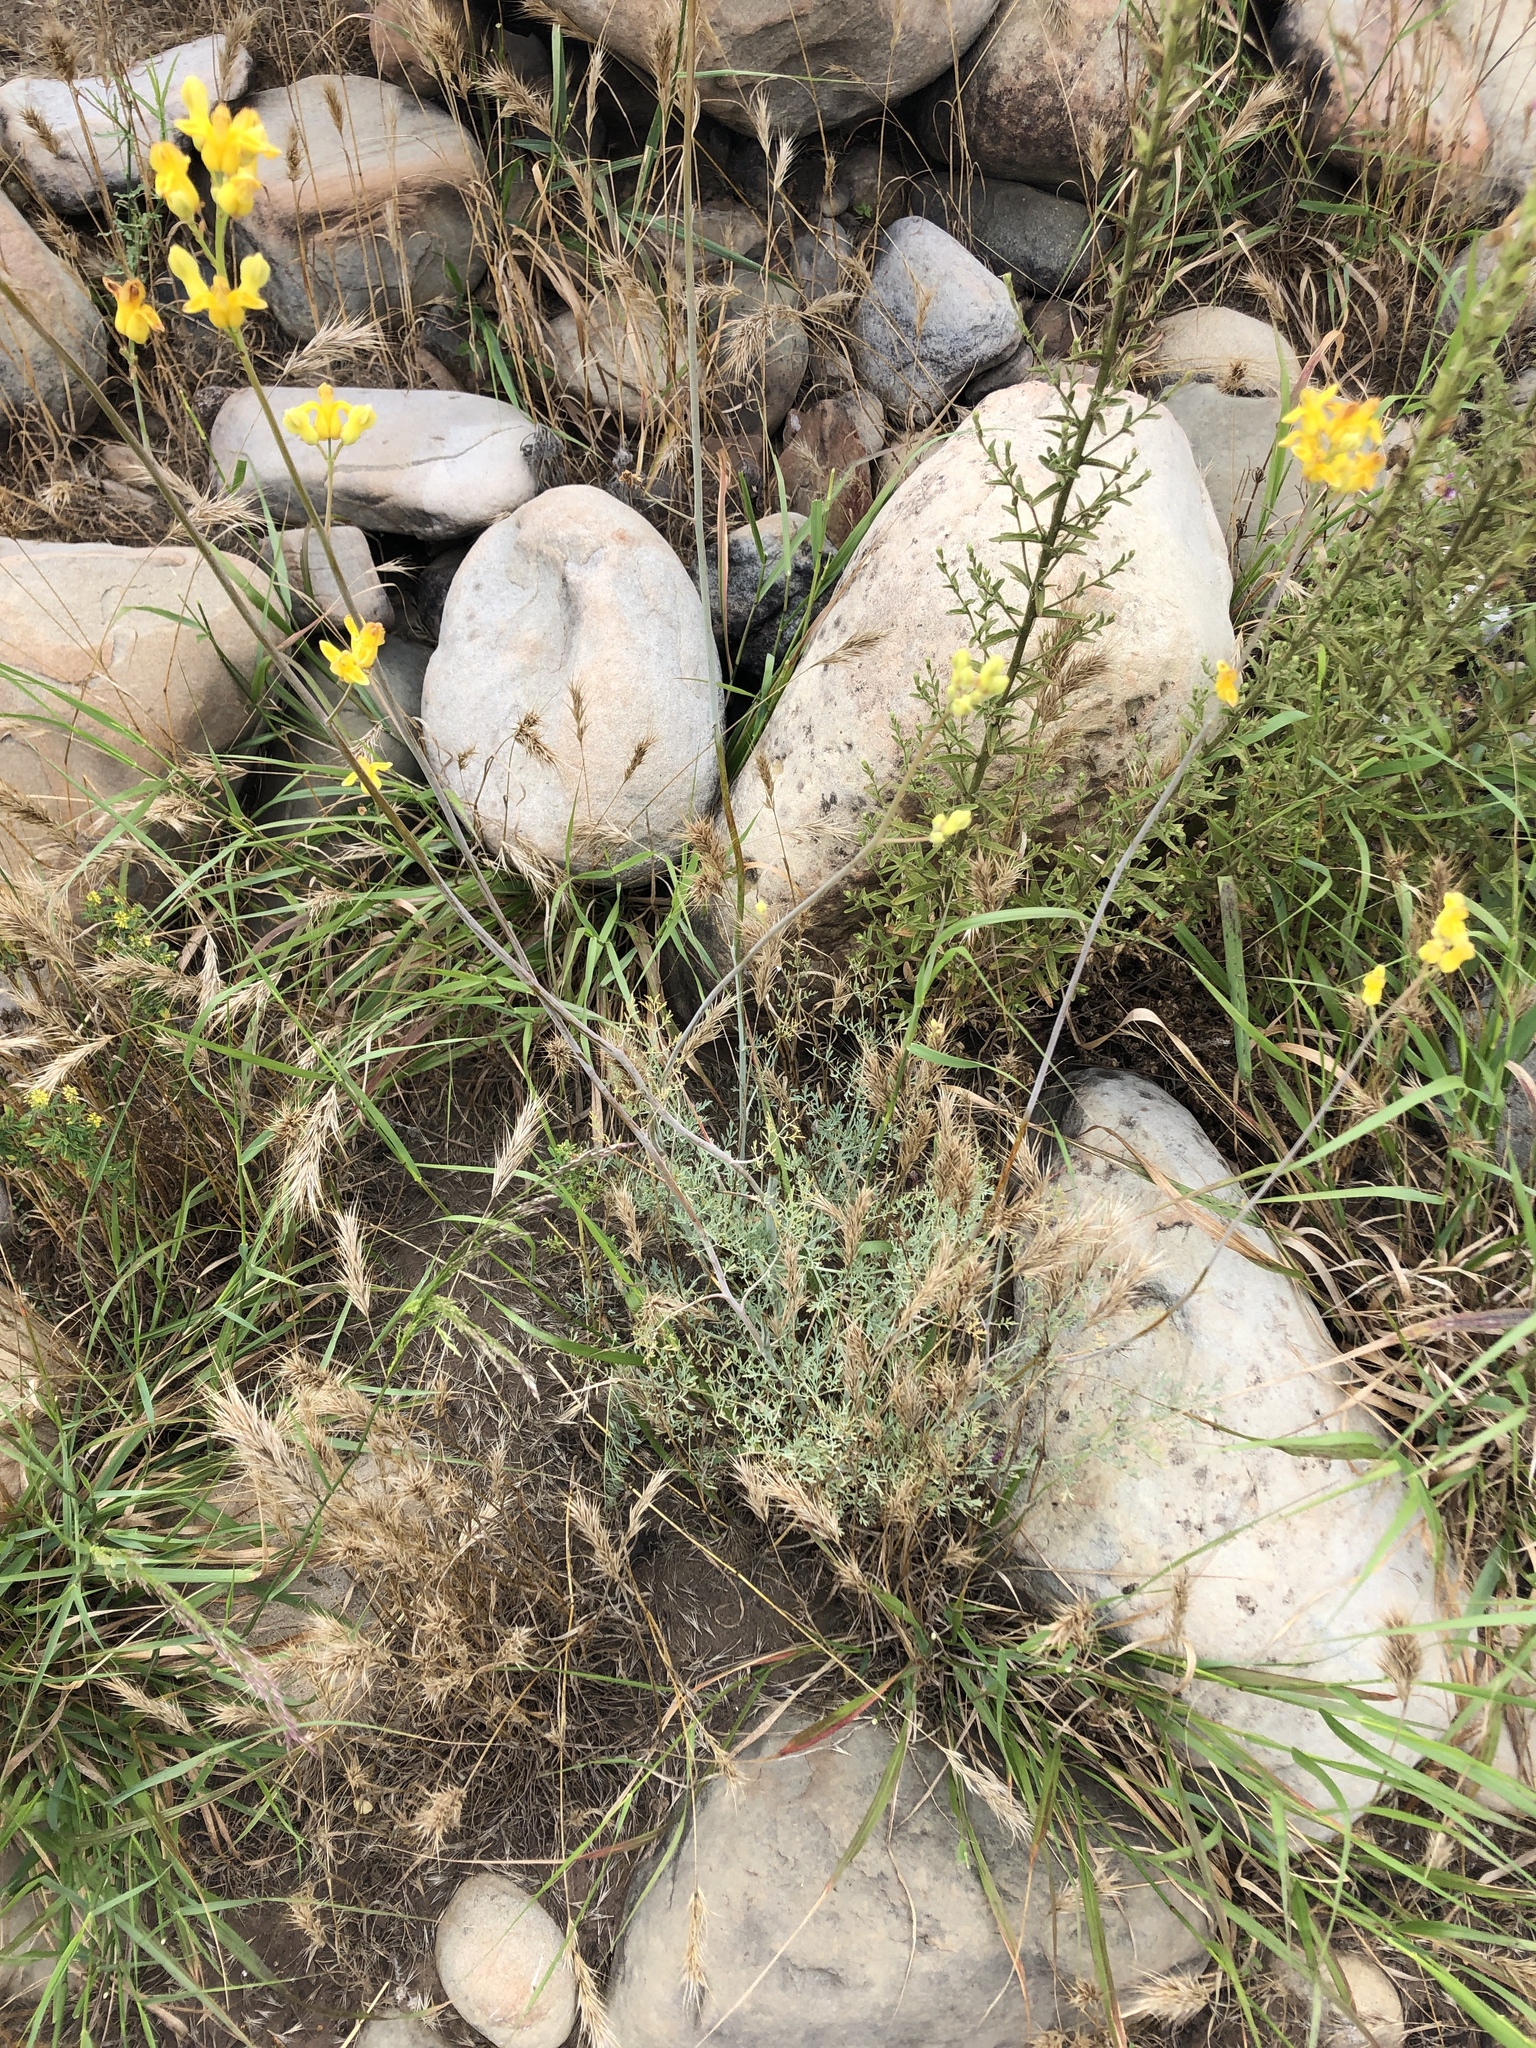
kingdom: Plantae
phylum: Tracheophyta
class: Magnoliopsida
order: Ranunculales
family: Papaveraceae
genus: Ehrendorferia
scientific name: Ehrendorferia chrysantha
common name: Golden eardrops
